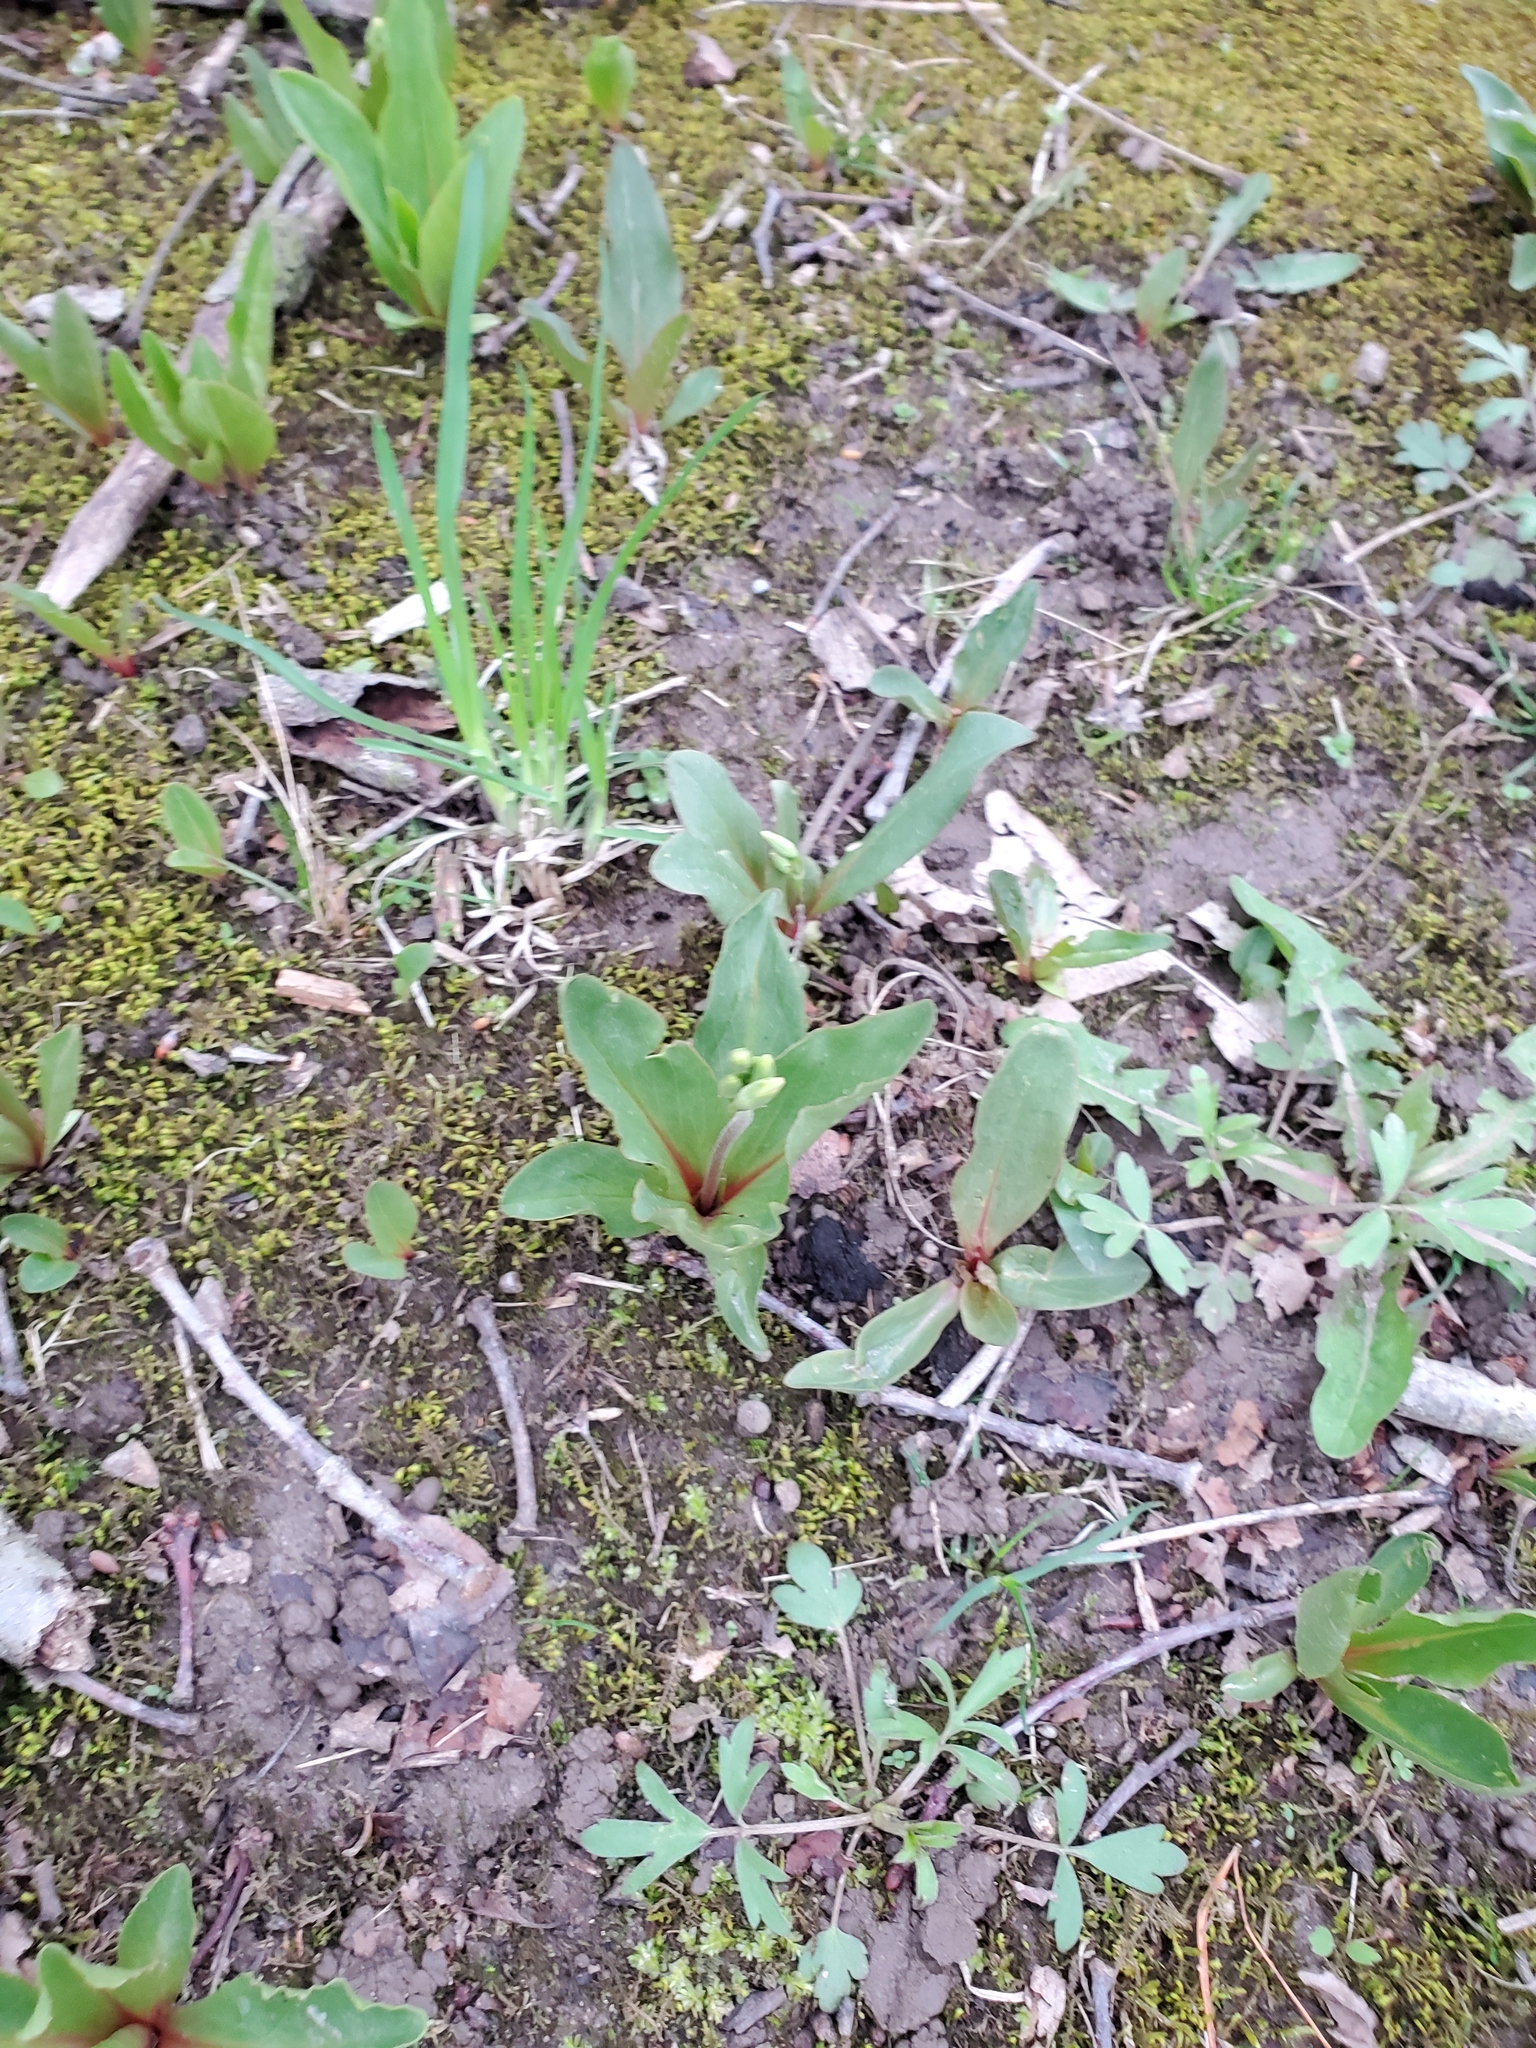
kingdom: Plantae
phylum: Tracheophyta
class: Magnoliopsida
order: Ericales
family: Primulaceae
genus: Dodecatheon
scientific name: Dodecatheon meadia
